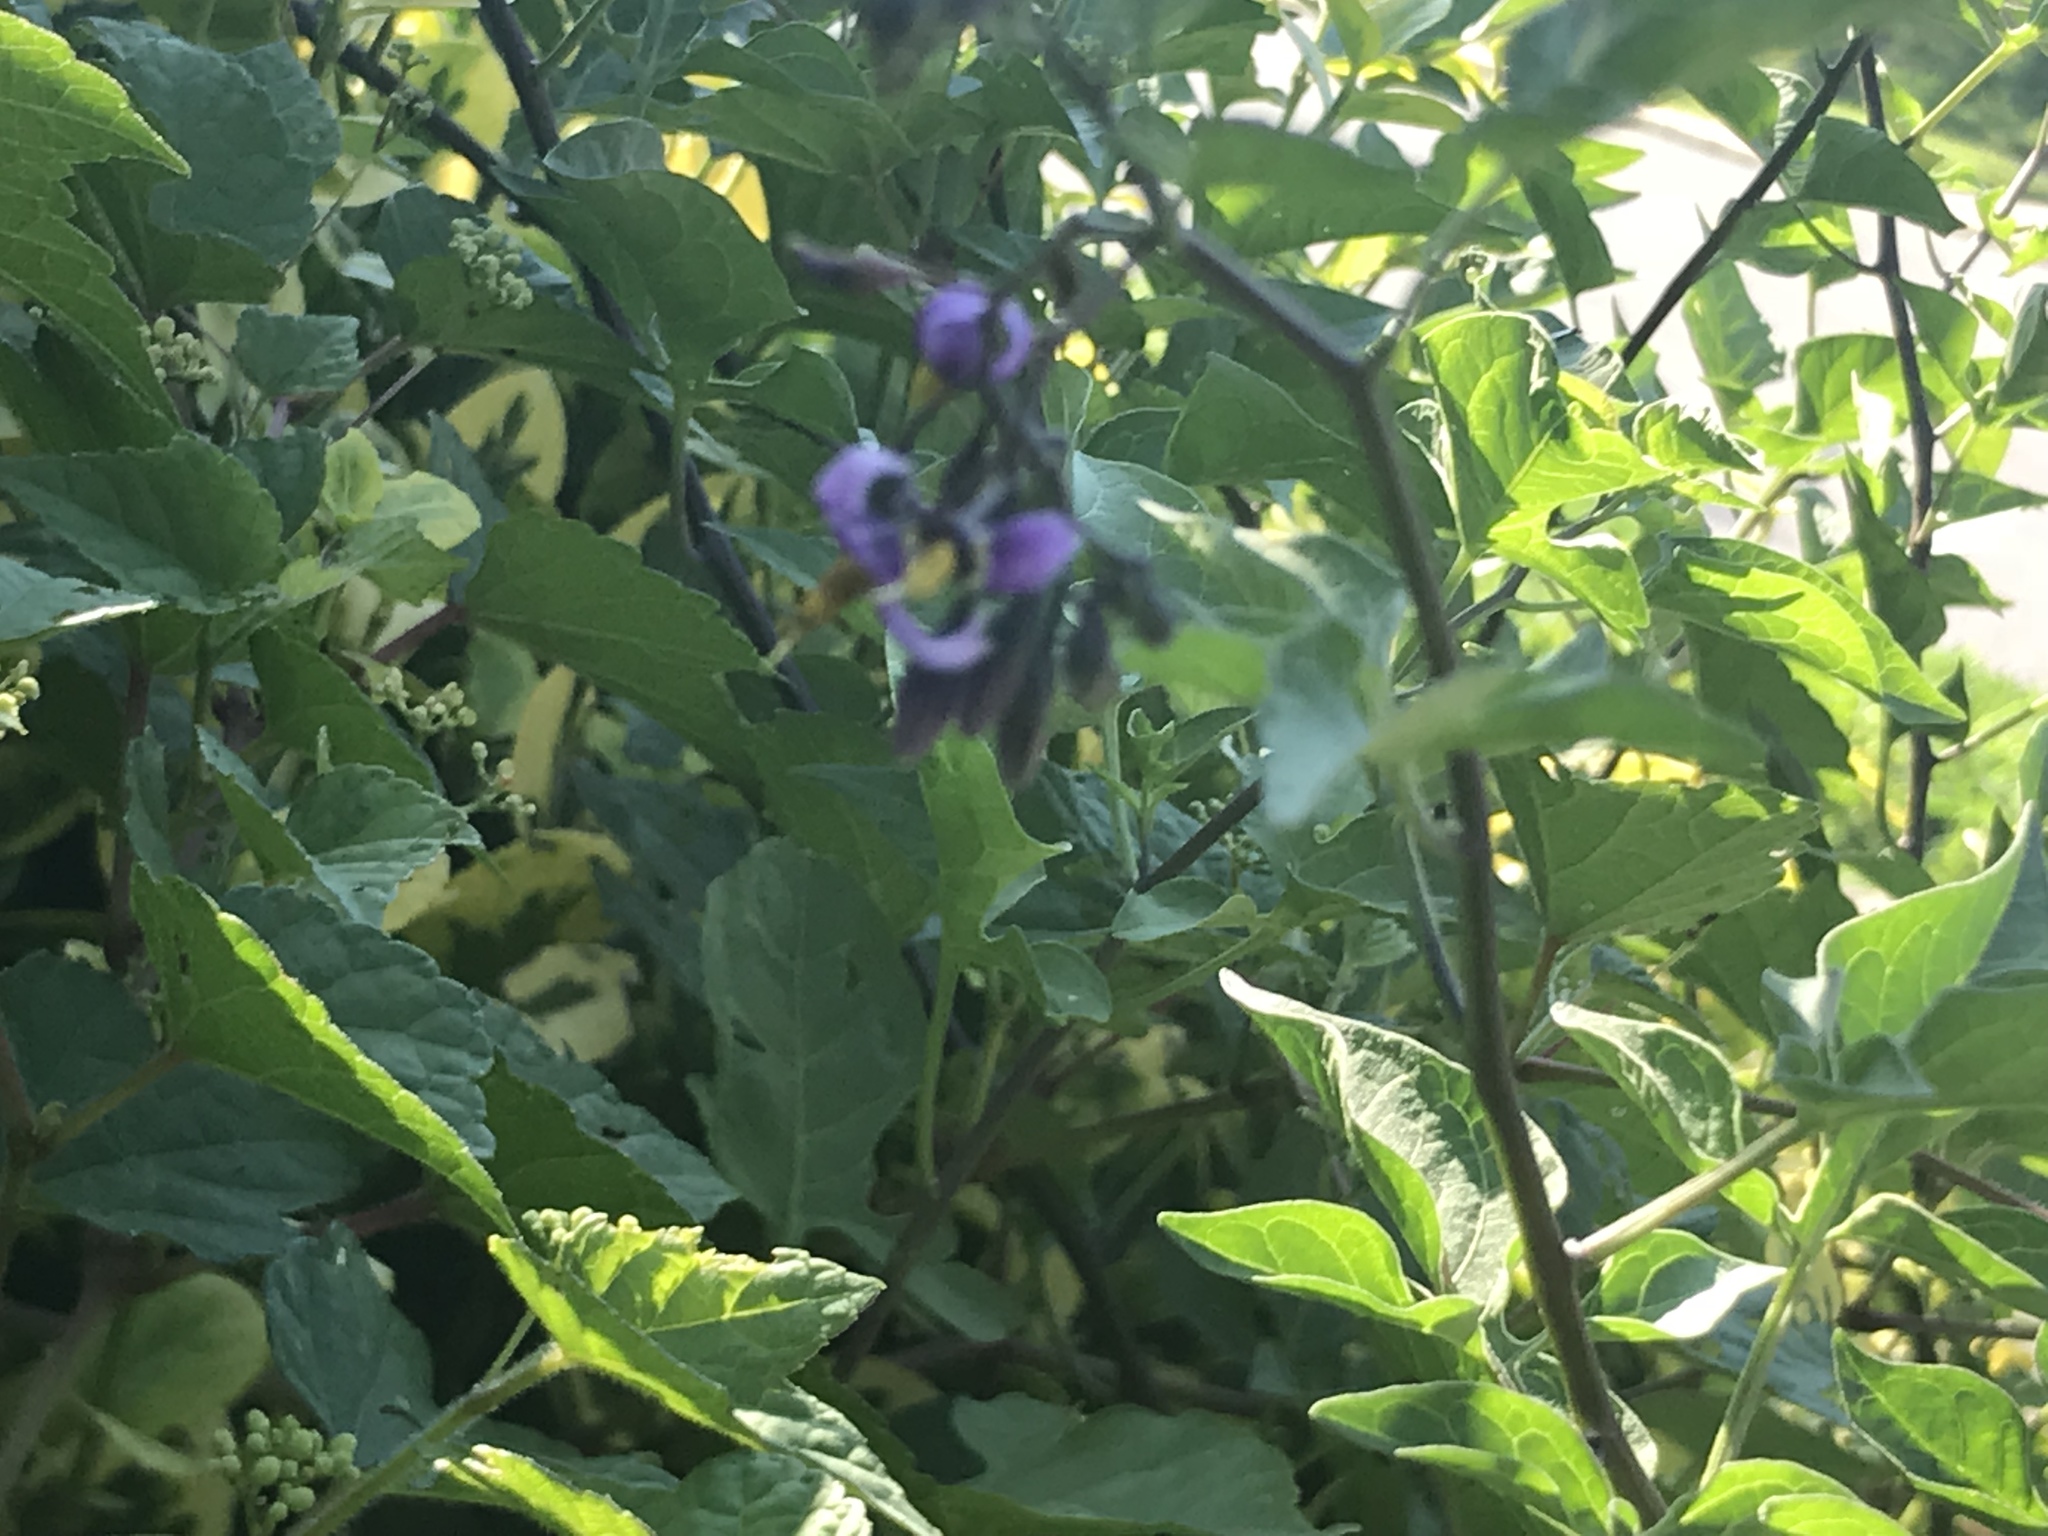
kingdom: Plantae
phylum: Tracheophyta
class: Magnoliopsida
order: Solanales
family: Solanaceae
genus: Solanum
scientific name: Solanum dulcamara
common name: Climbing nightshade
